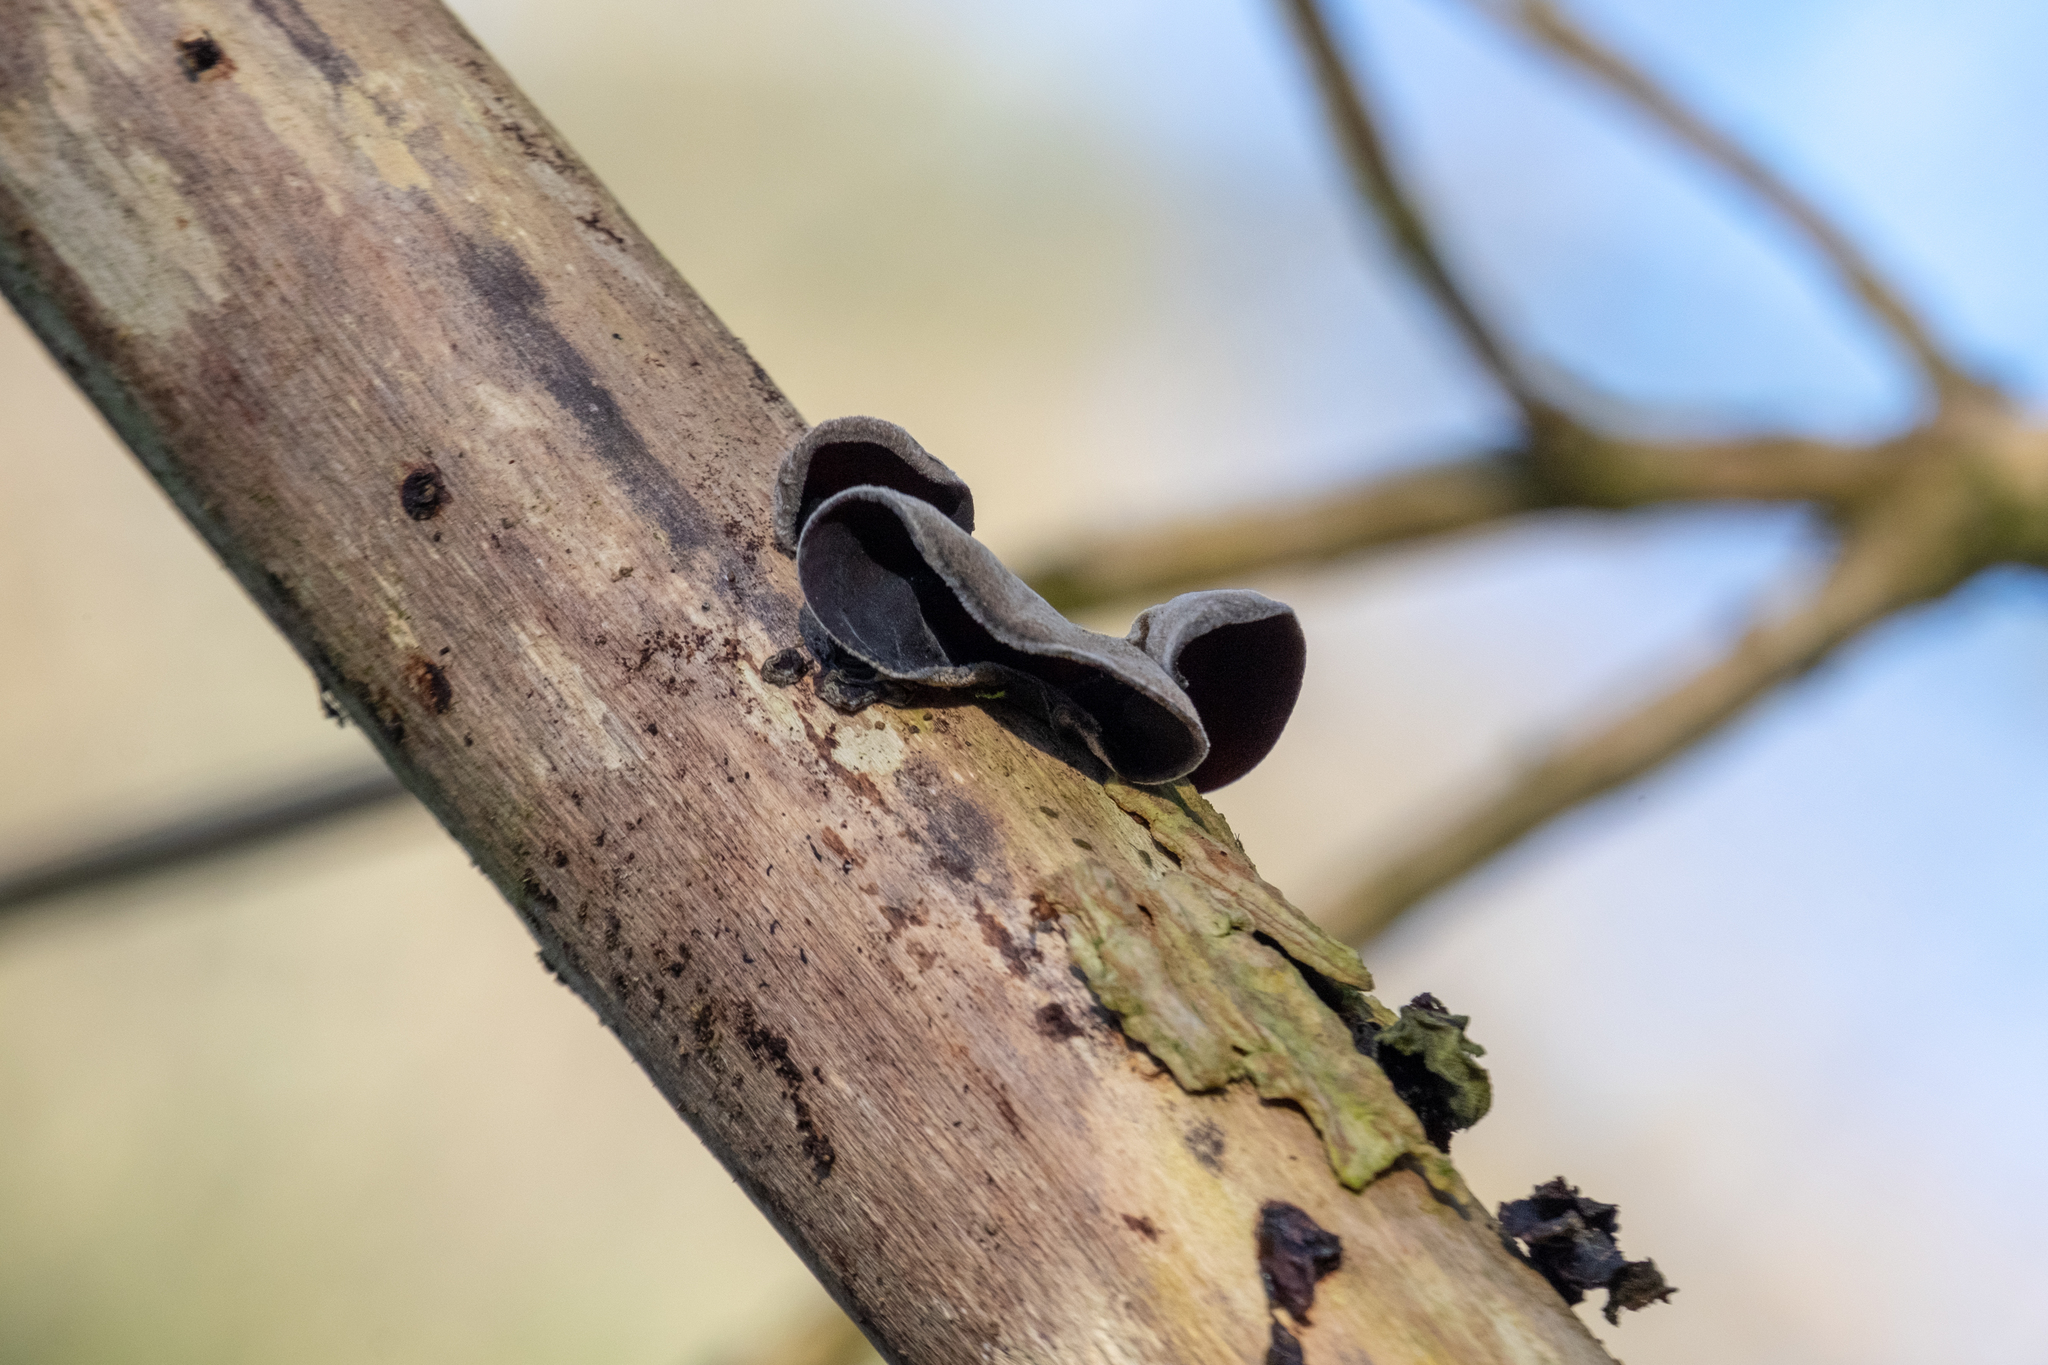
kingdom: Fungi
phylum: Basidiomycota
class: Agaricomycetes
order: Auriculariales
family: Auriculariaceae
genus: Auricularia
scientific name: Auricularia auricula-judae
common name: Jelly ear
